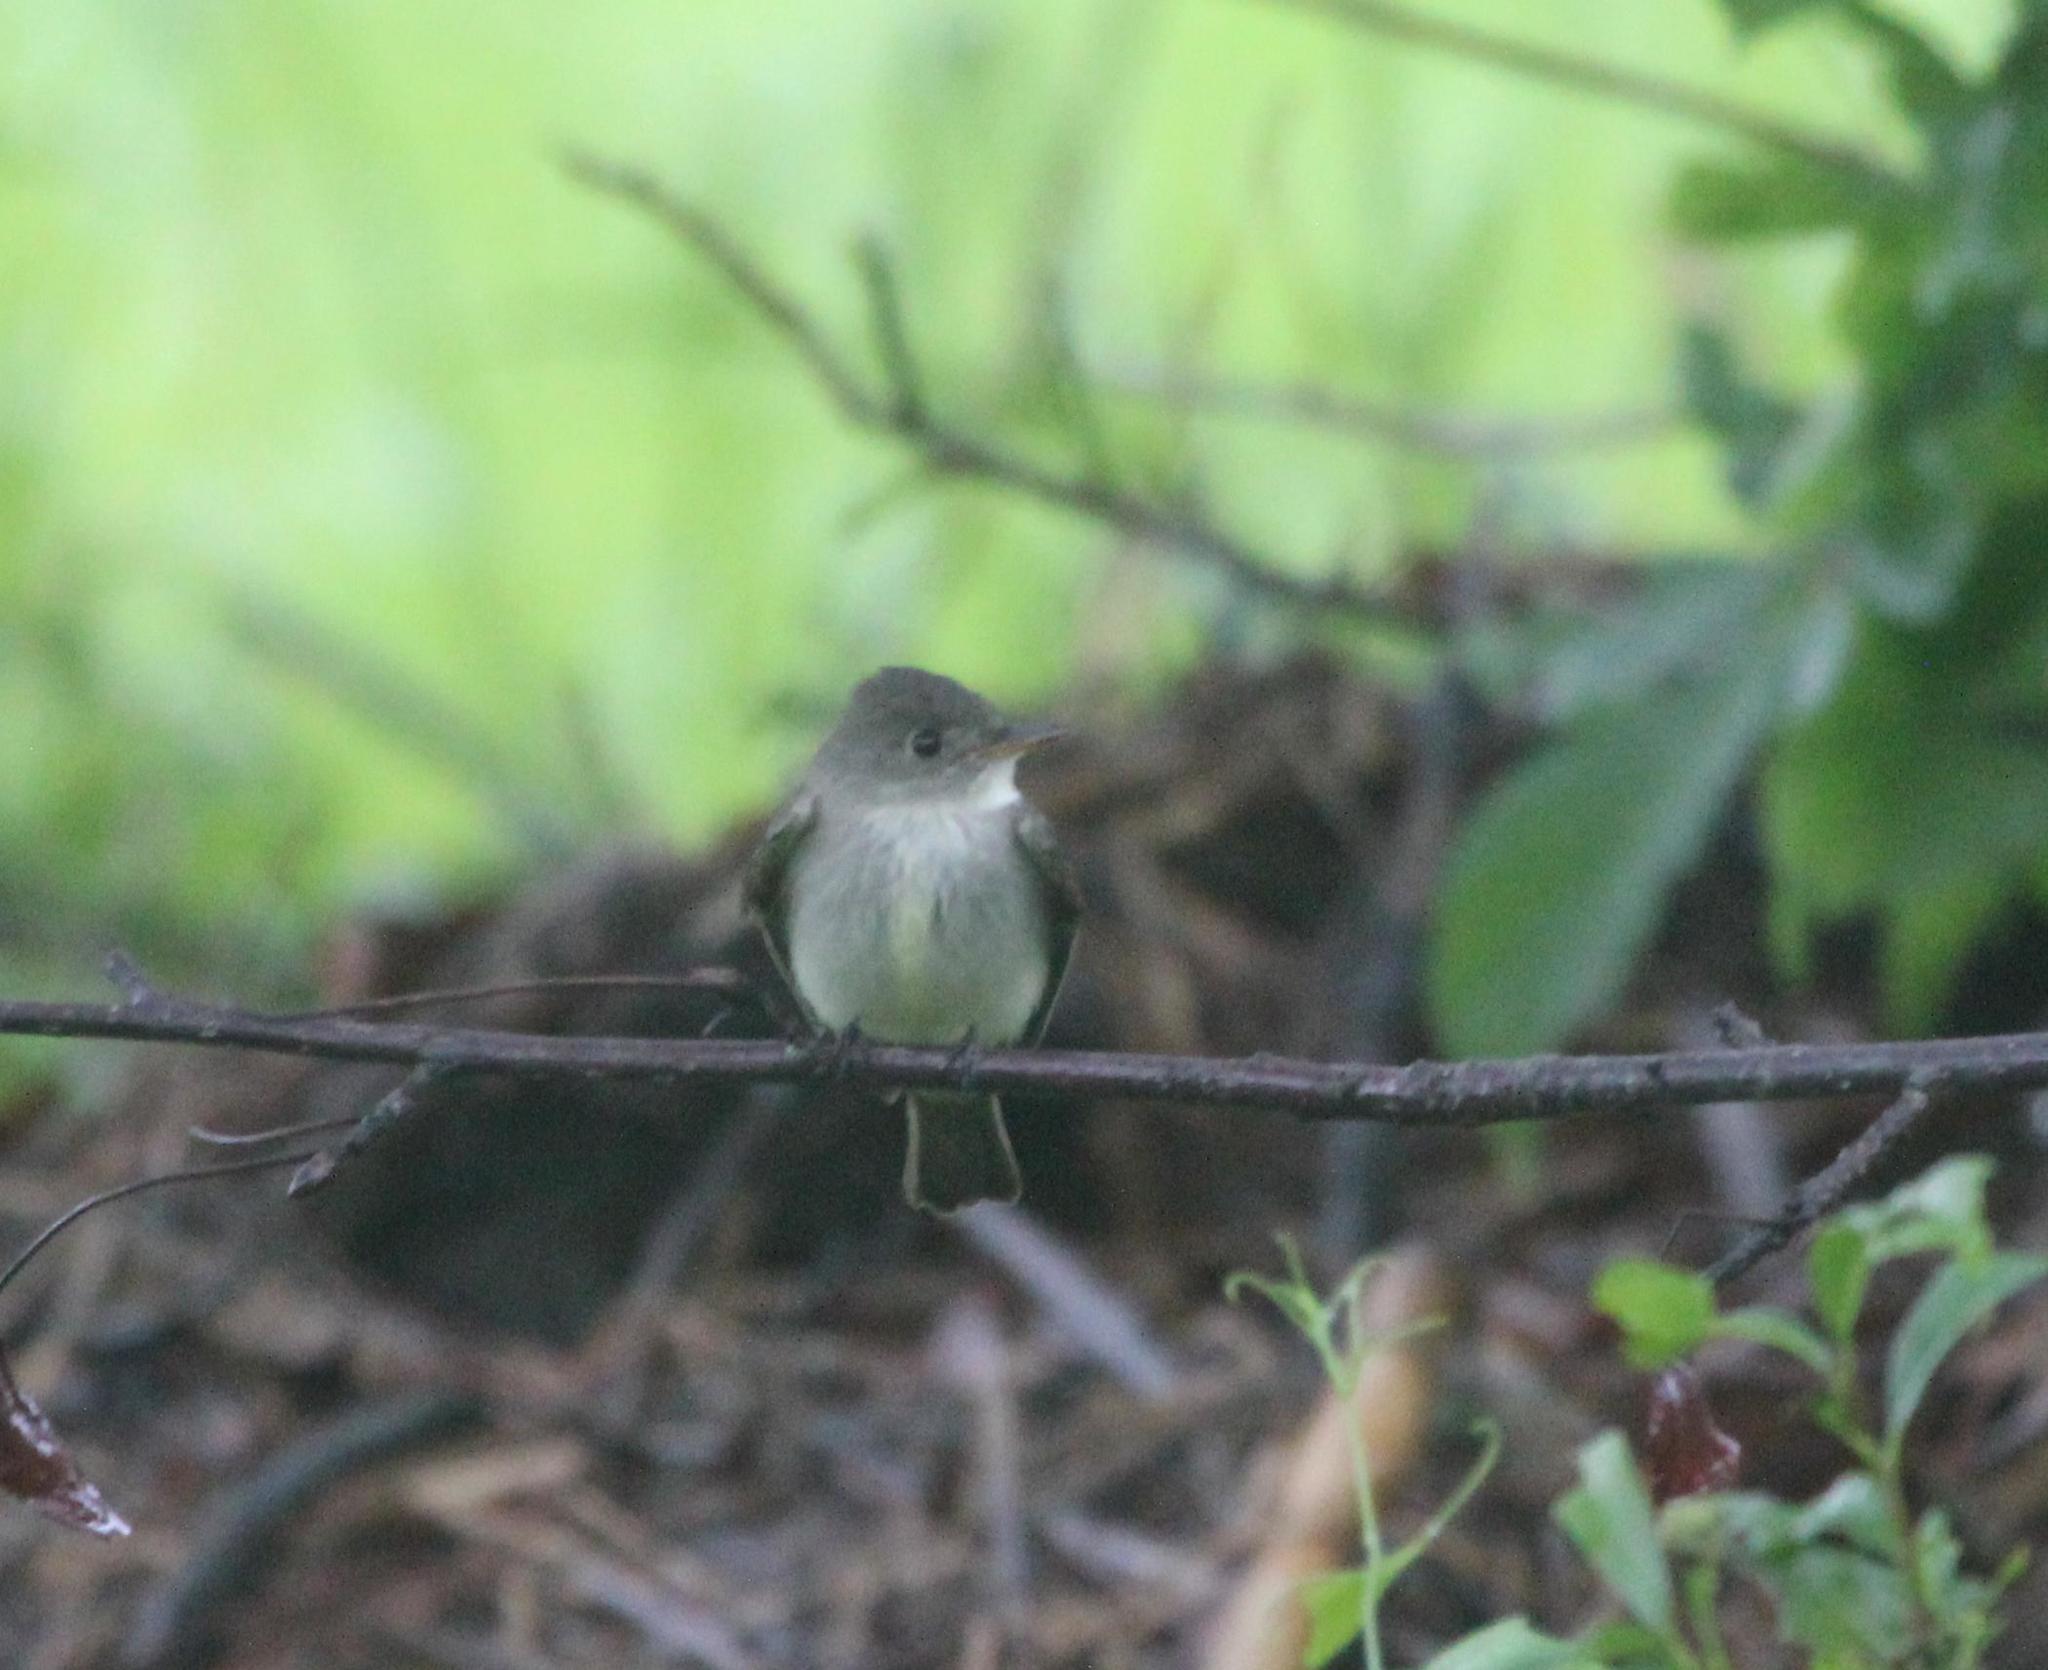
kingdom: Animalia
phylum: Chordata
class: Aves
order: Passeriformes
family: Tyrannidae
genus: Contopus
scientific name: Contopus virens
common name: Eastern wood-pewee
